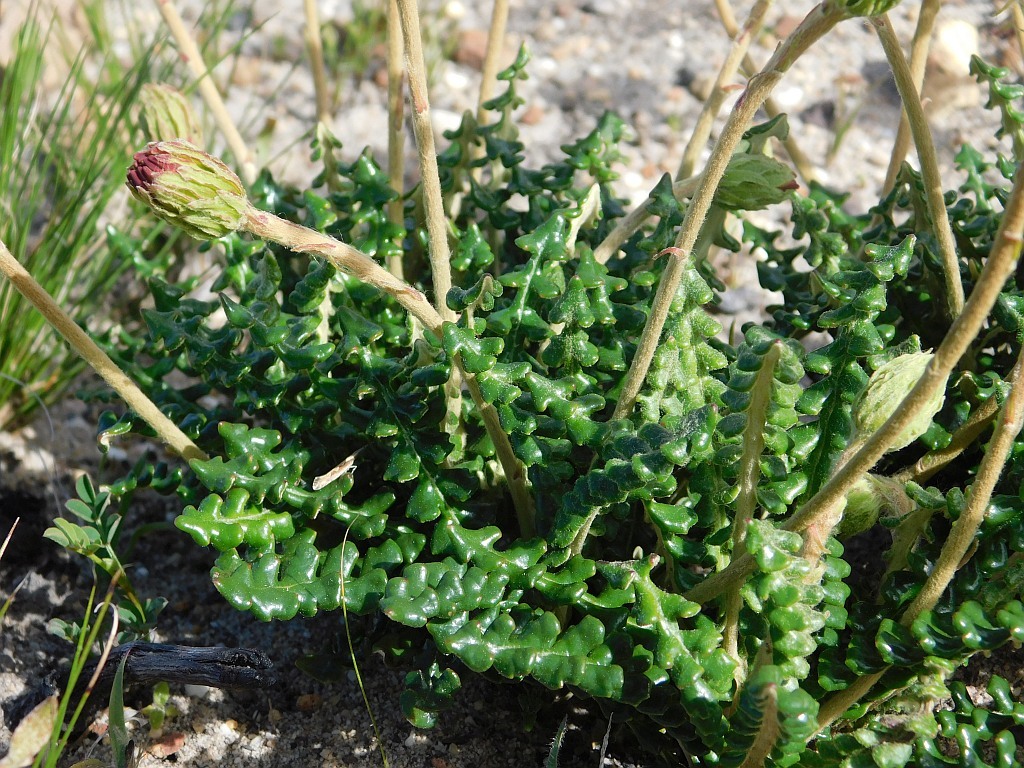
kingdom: Plantae
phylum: Tracheophyta
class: Magnoliopsida
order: Asterales
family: Asteraceae
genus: Gerbera
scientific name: Gerbera linnaei
